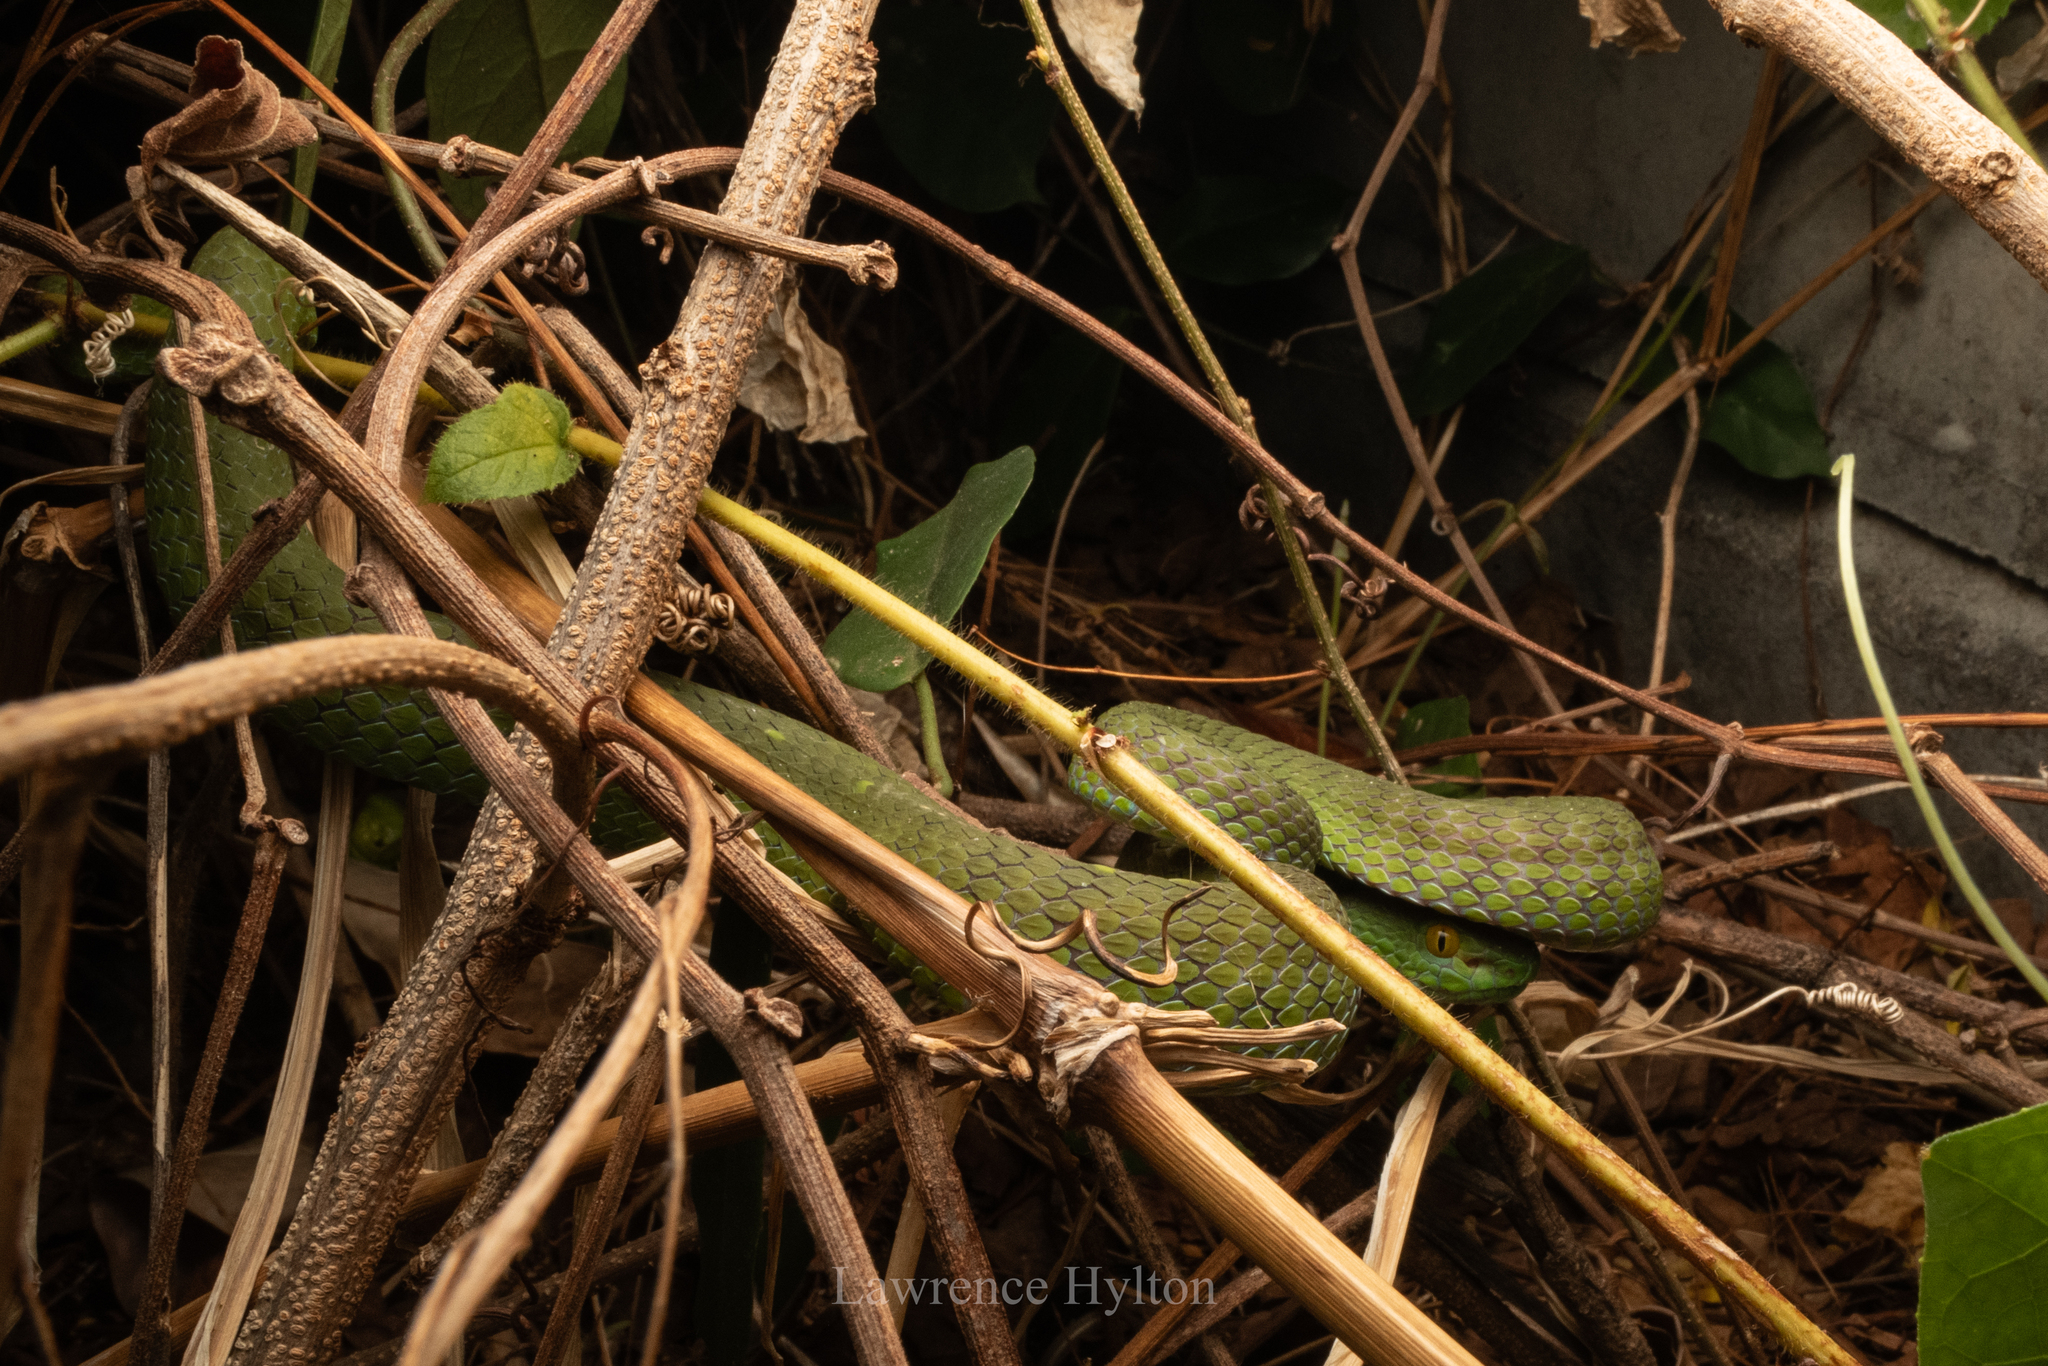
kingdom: Animalia
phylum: Chordata
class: Squamata
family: Viperidae
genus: Trimeresurus
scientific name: Trimeresurus macrops
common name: Kramer's pit viper
